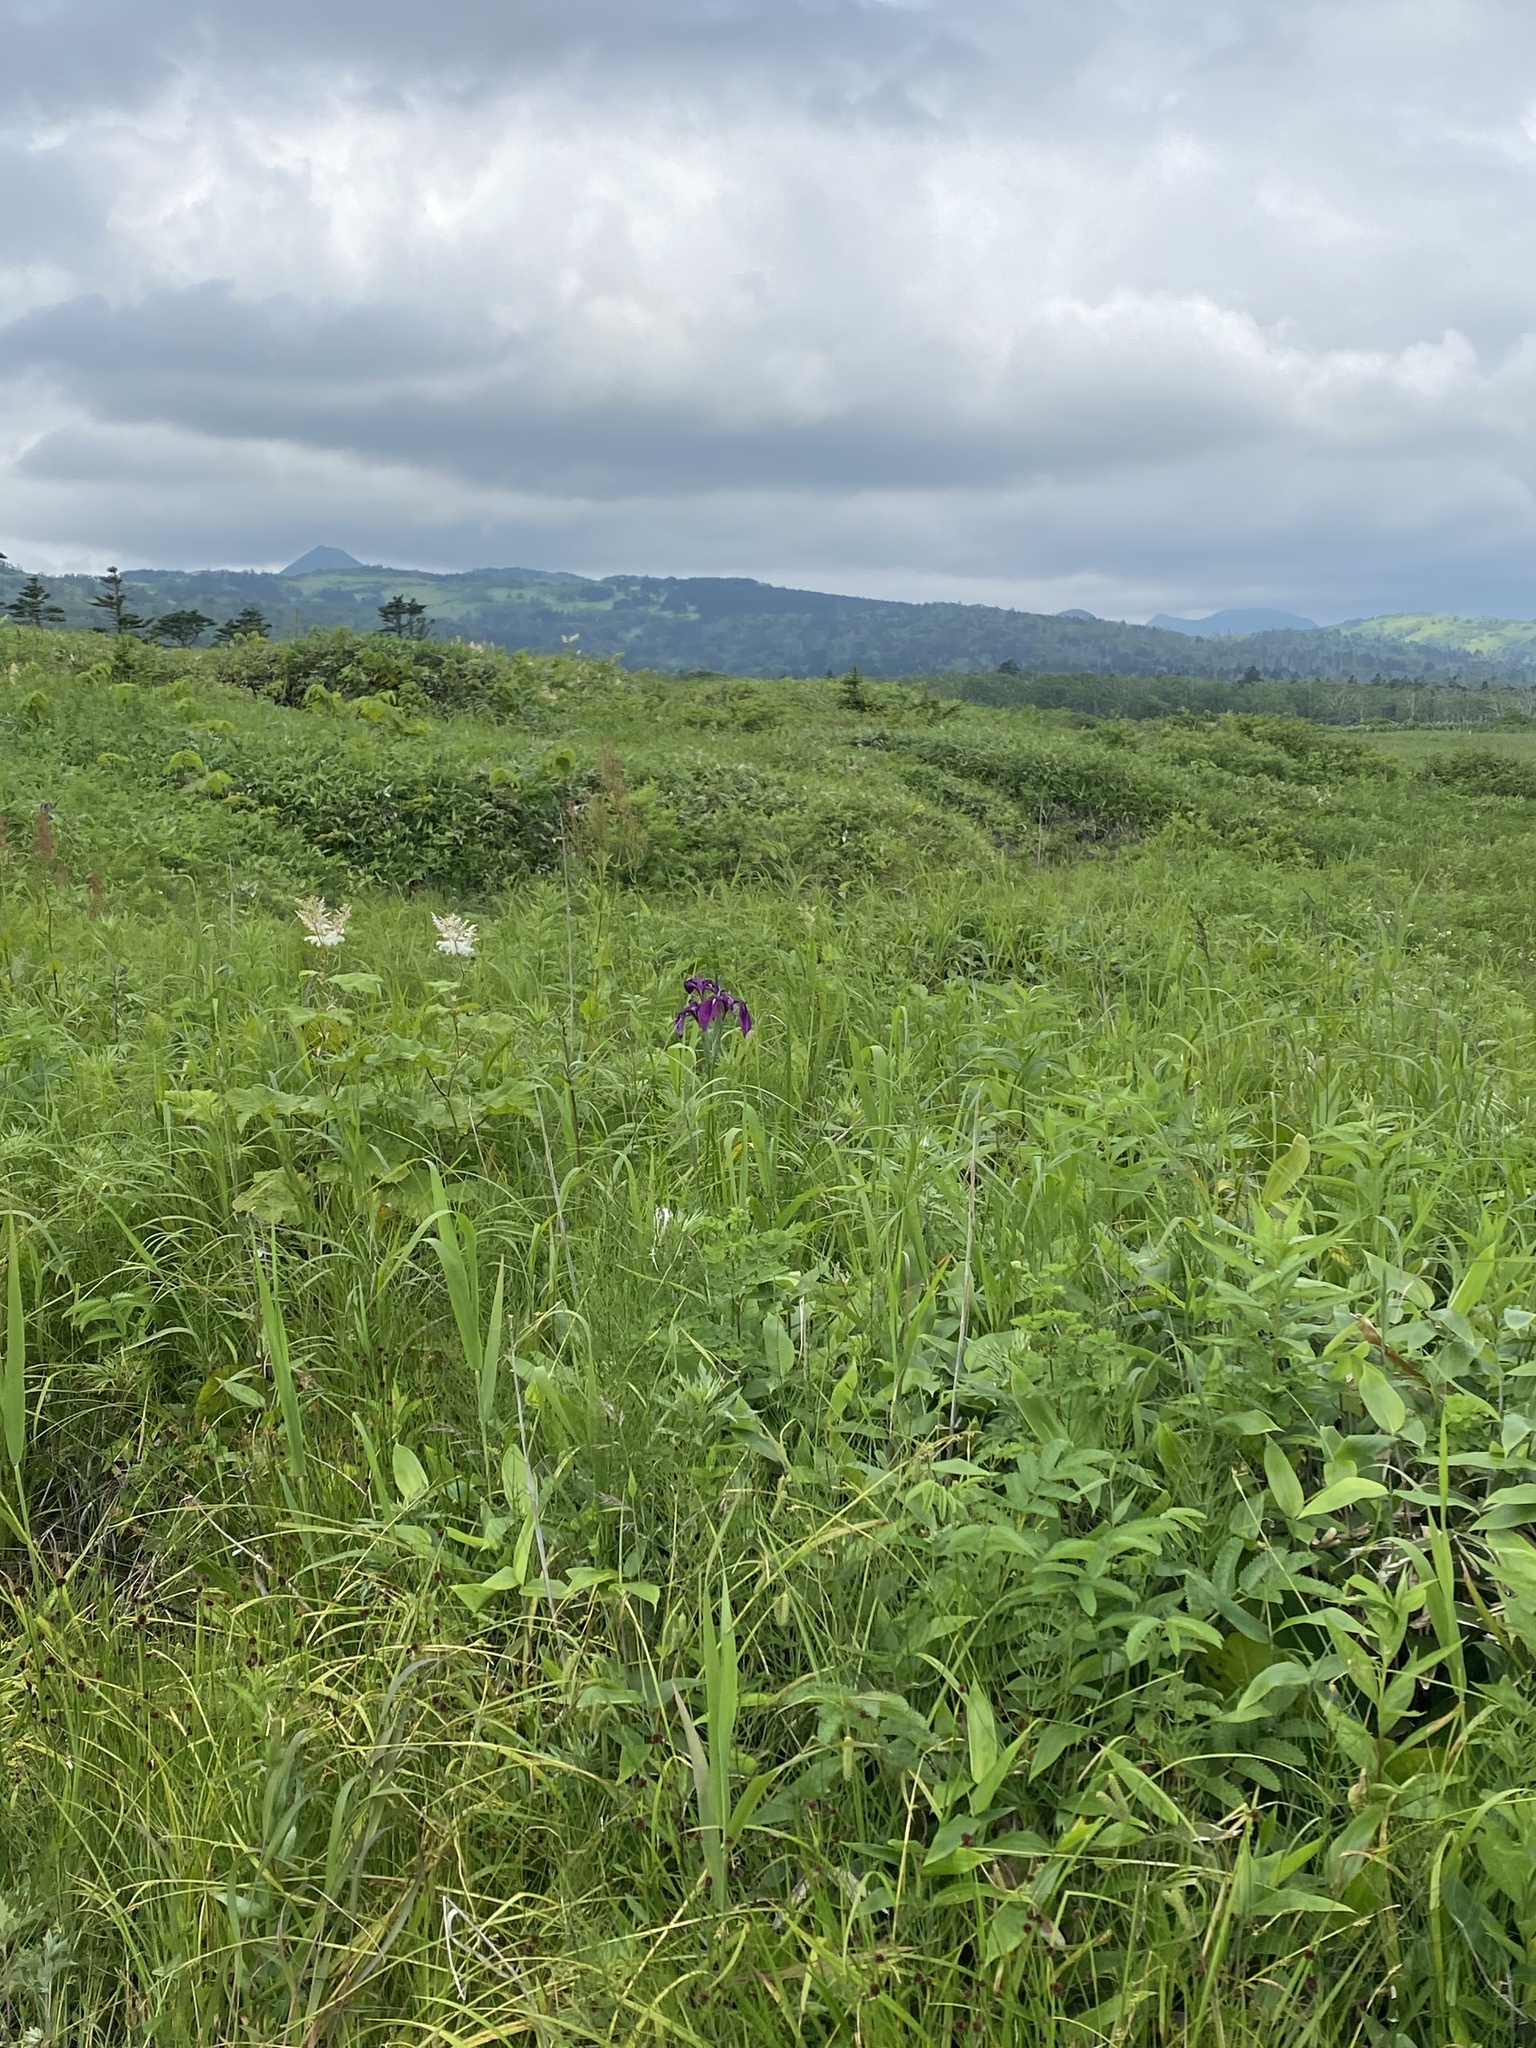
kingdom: Plantae
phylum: Tracheophyta
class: Liliopsida
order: Asparagales
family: Iridaceae
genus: Iris
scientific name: Iris ensata
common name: Beaked iris
